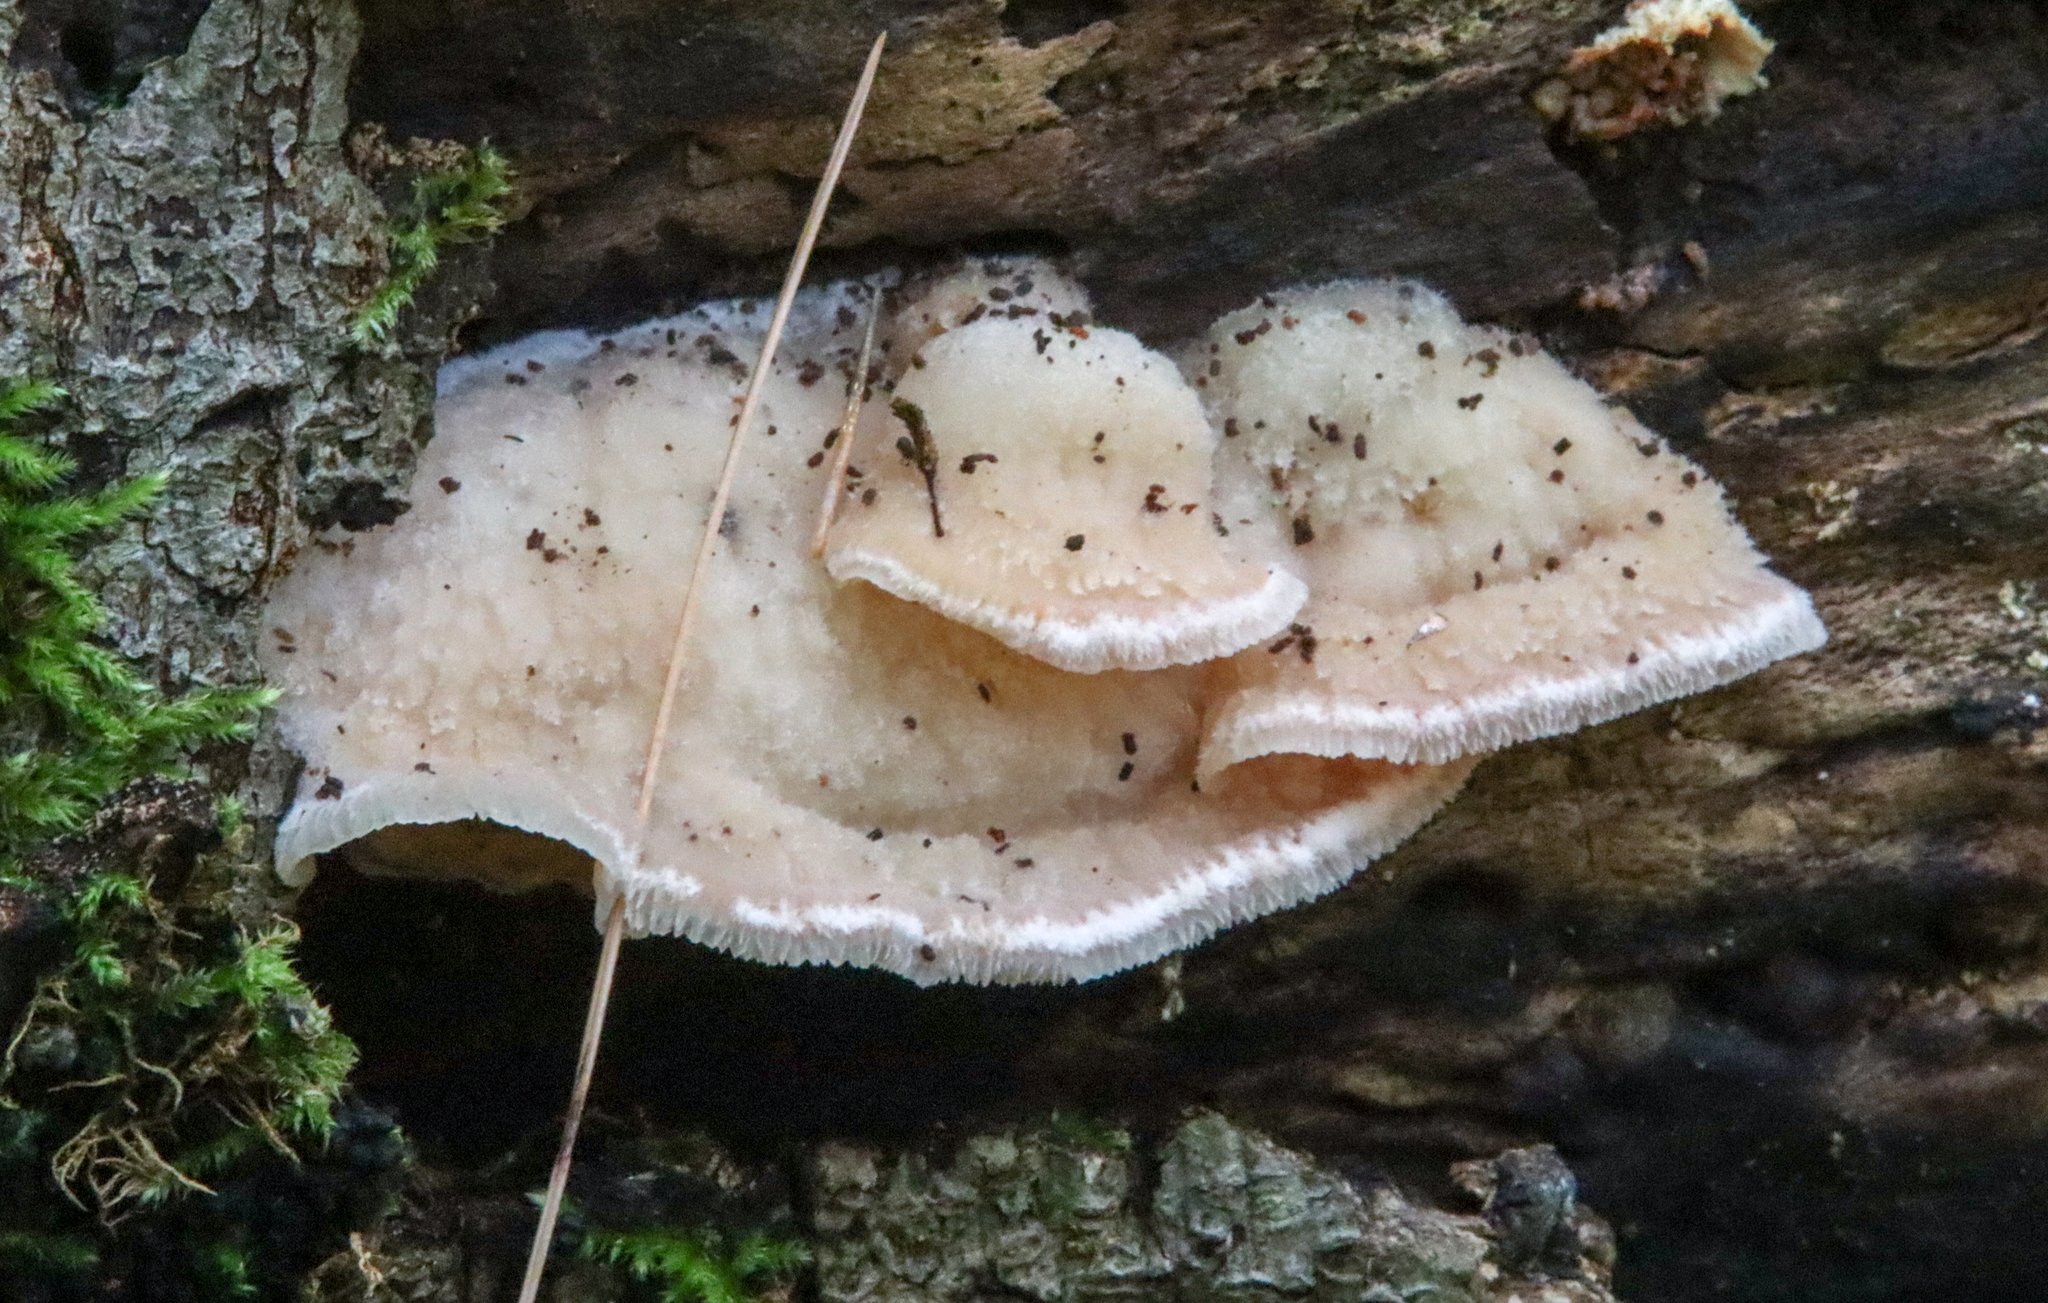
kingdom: Fungi
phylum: Basidiomycota
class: Agaricomycetes
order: Polyporales
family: Meruliaceae
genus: Phlebia
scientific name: Phlebia tremellosa
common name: Jelly rot
